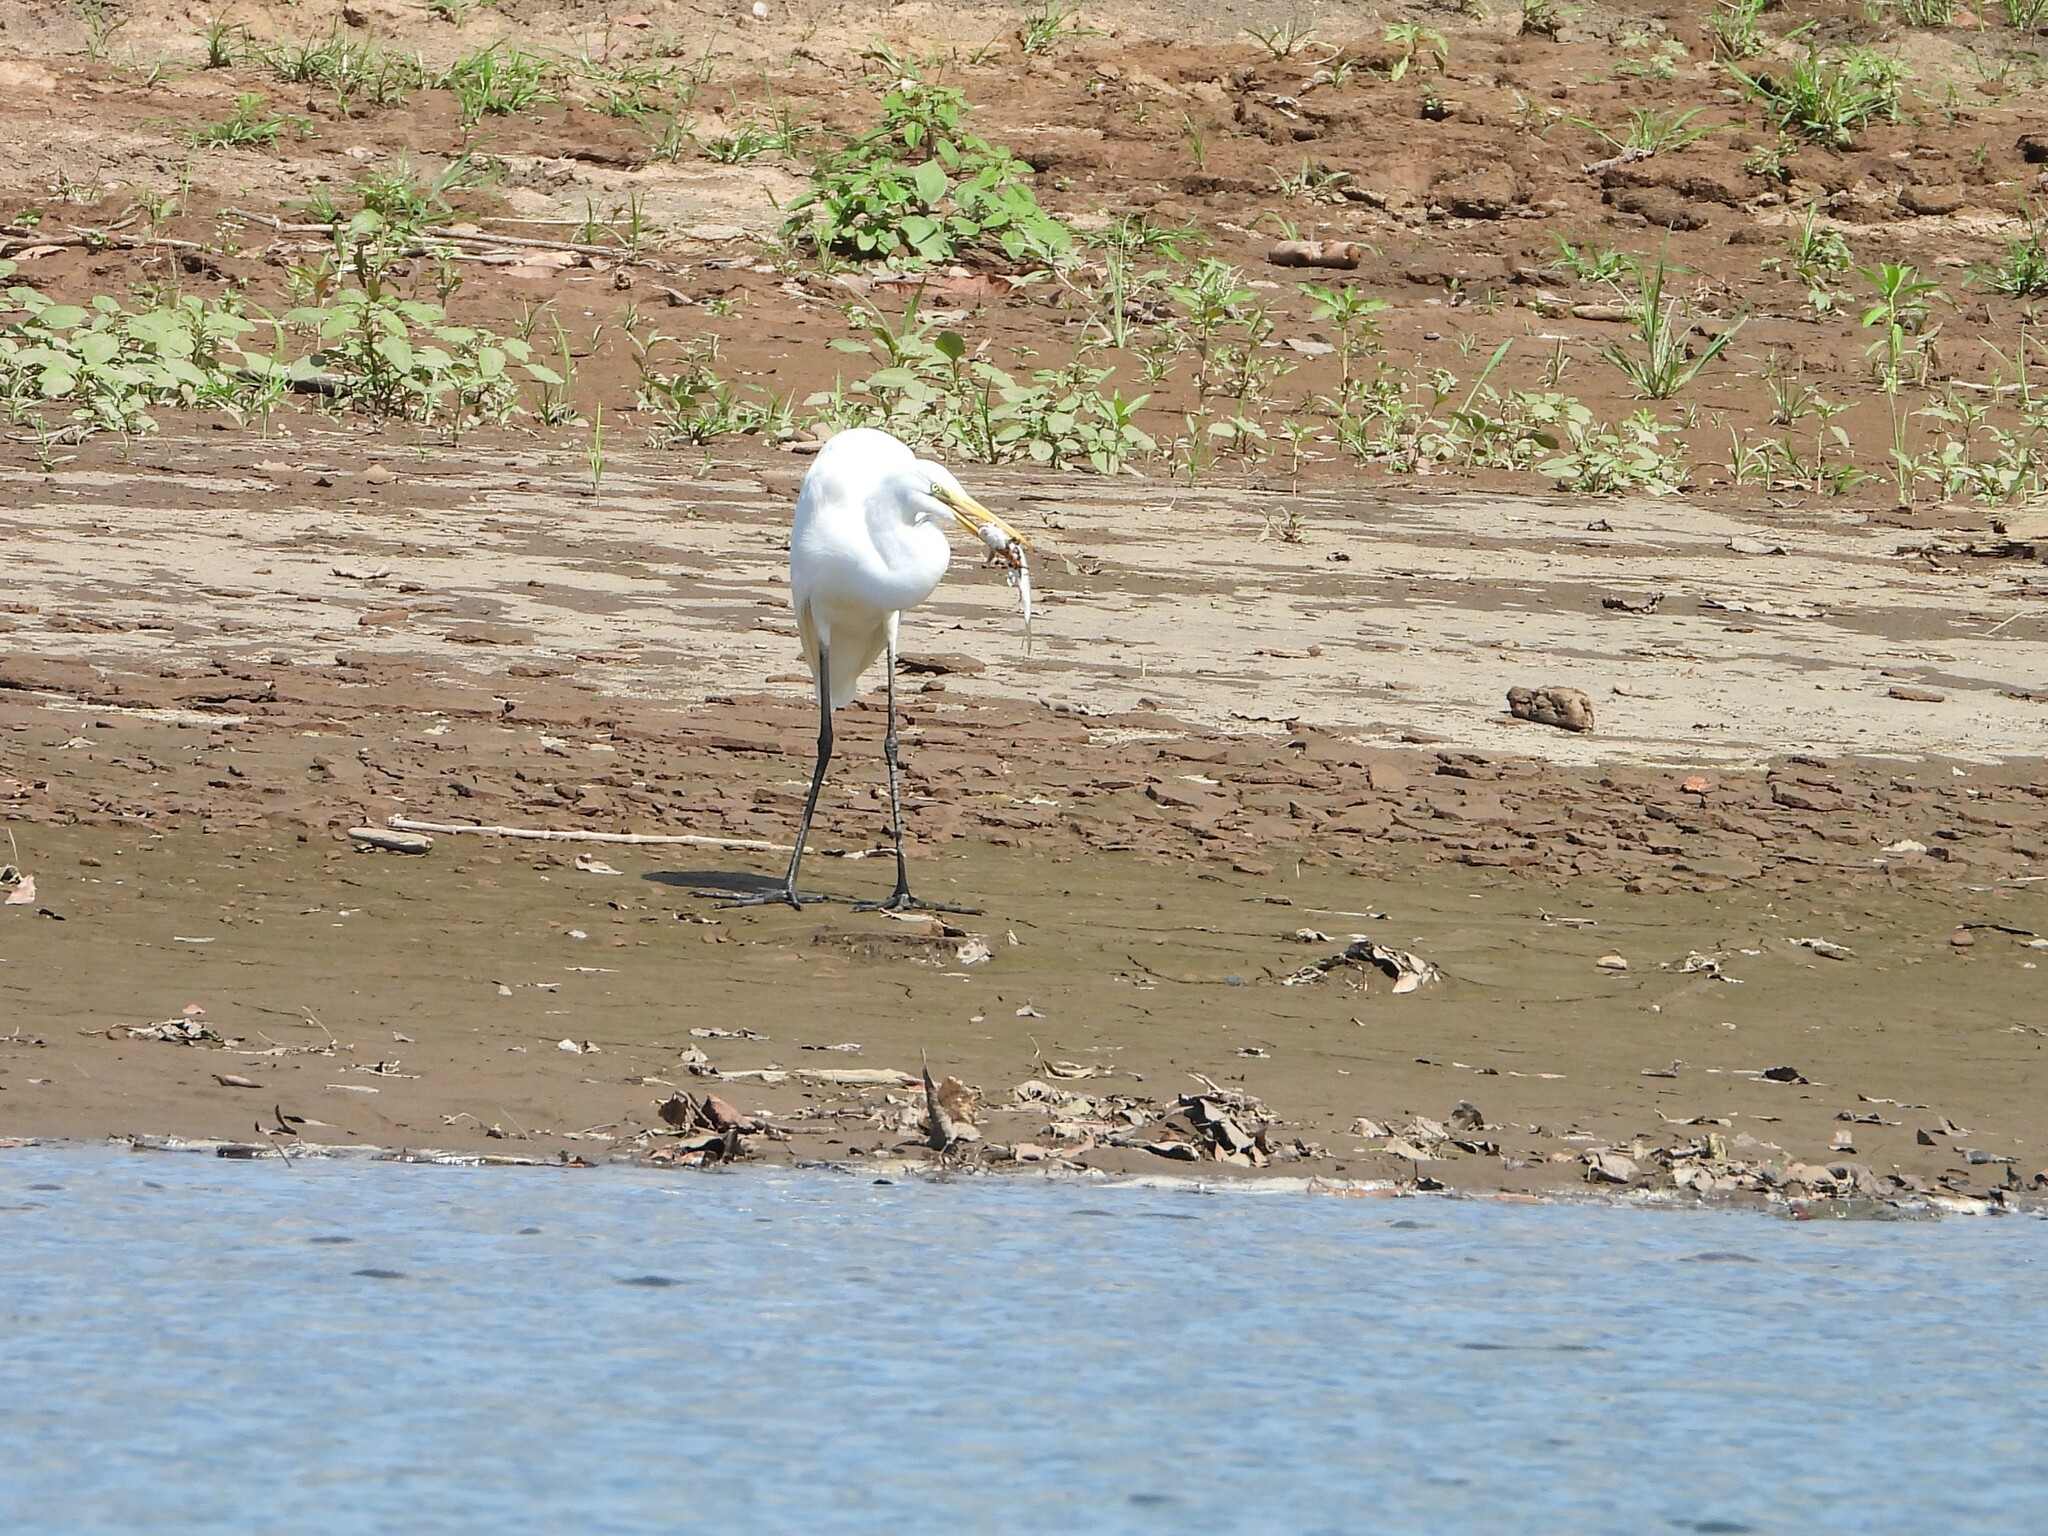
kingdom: Animalia
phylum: Chordata
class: Aves
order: Pelecaniformes
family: Ardeidae
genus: Ardea
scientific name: Ardea alba
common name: Great egret
